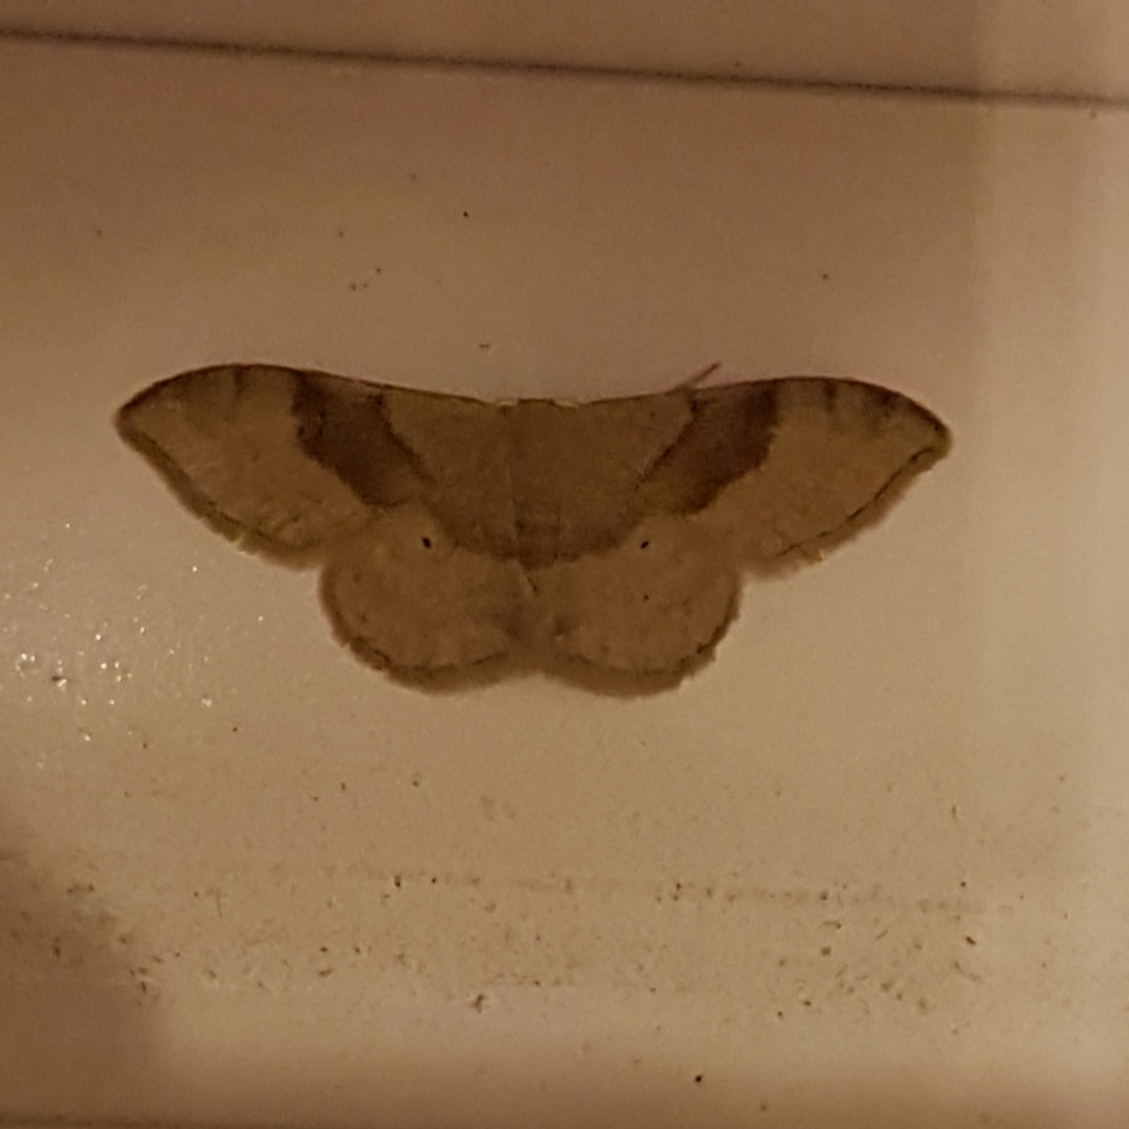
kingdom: Animalia
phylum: Arthropoda
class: Insecta
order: Lepidoptera
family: Geometridae
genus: Idaea
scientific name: Idaea degeneraria
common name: Portland ribbon wave
